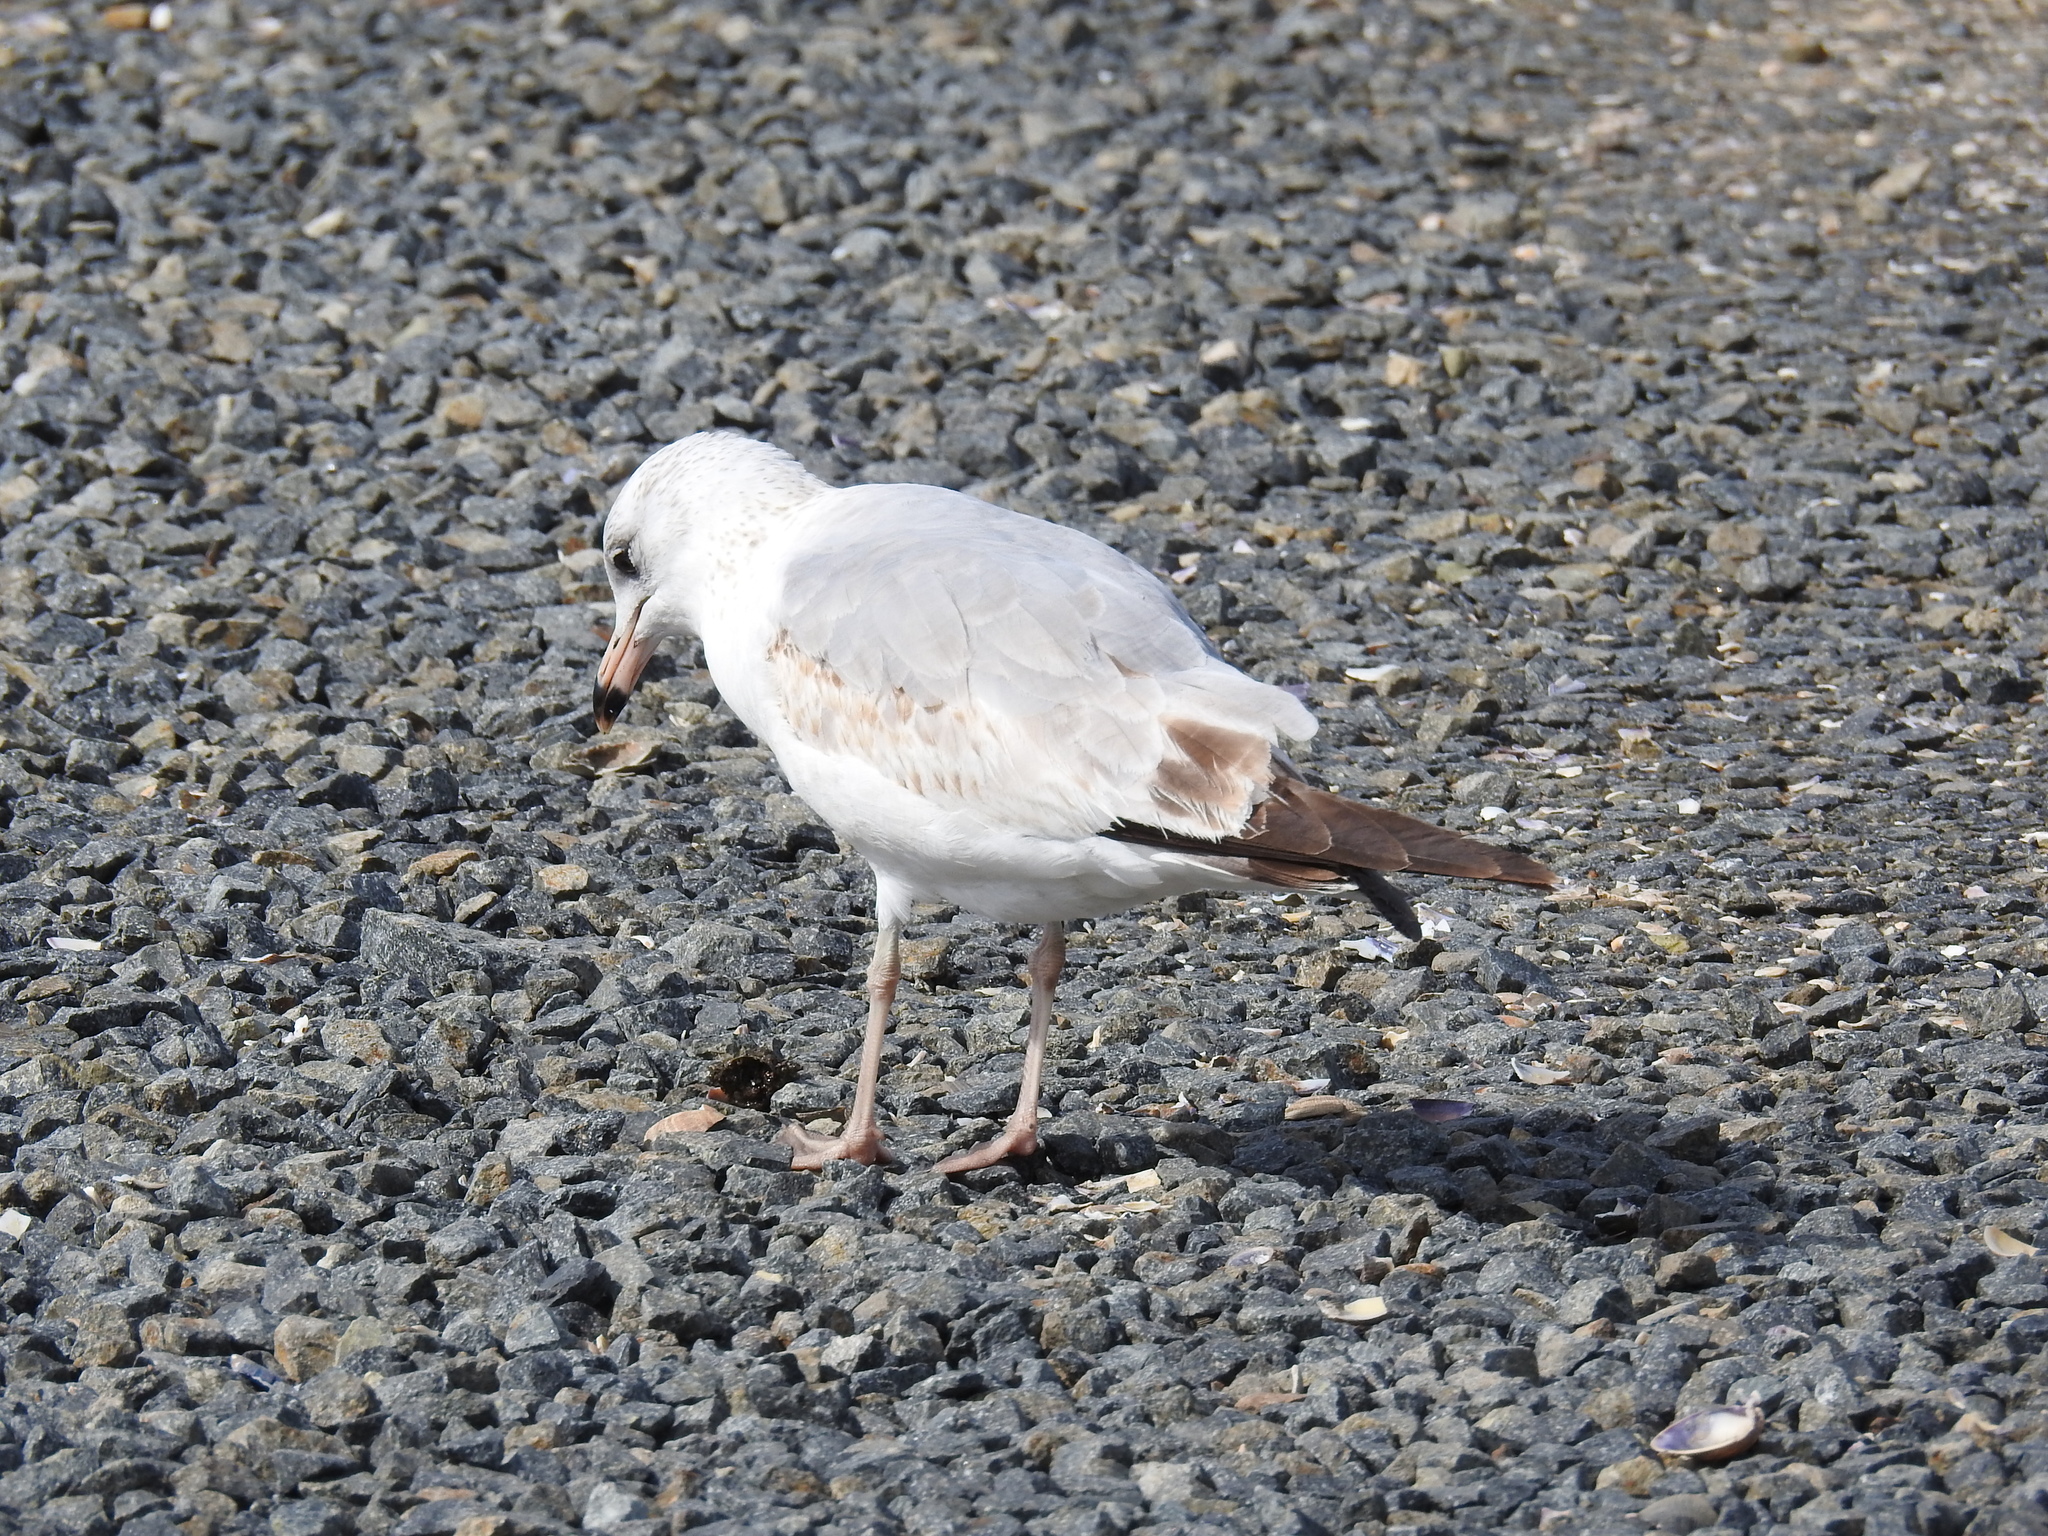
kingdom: Animalia
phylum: Chordata
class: Aves
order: Charadriiformes
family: Laridae
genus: Larus
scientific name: Larus delawarensis
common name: Ring-billed gull
